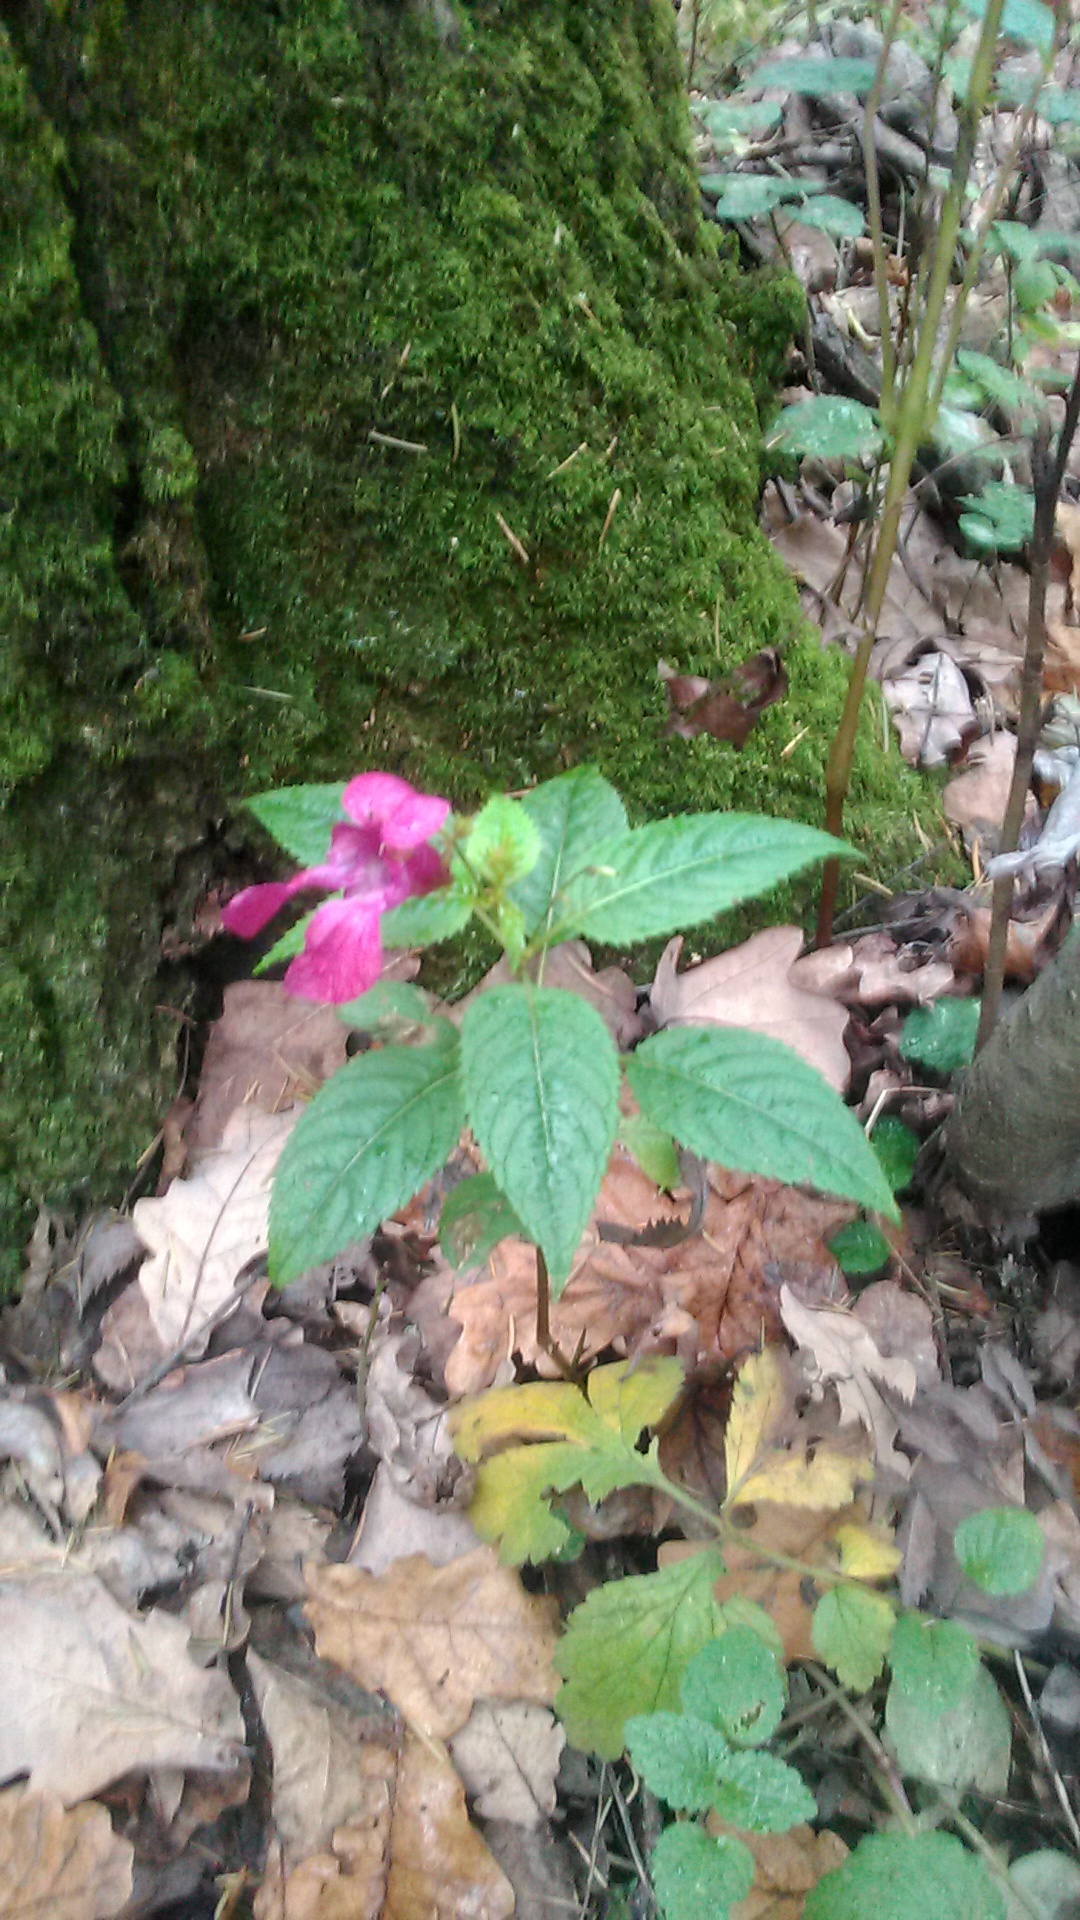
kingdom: Plantae
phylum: Tracheophyta
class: Magnoliopsida
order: Ericales
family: Balsaminaceae
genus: Impatiens
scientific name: Impatiens glandulifera
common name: Himalayan balsam
